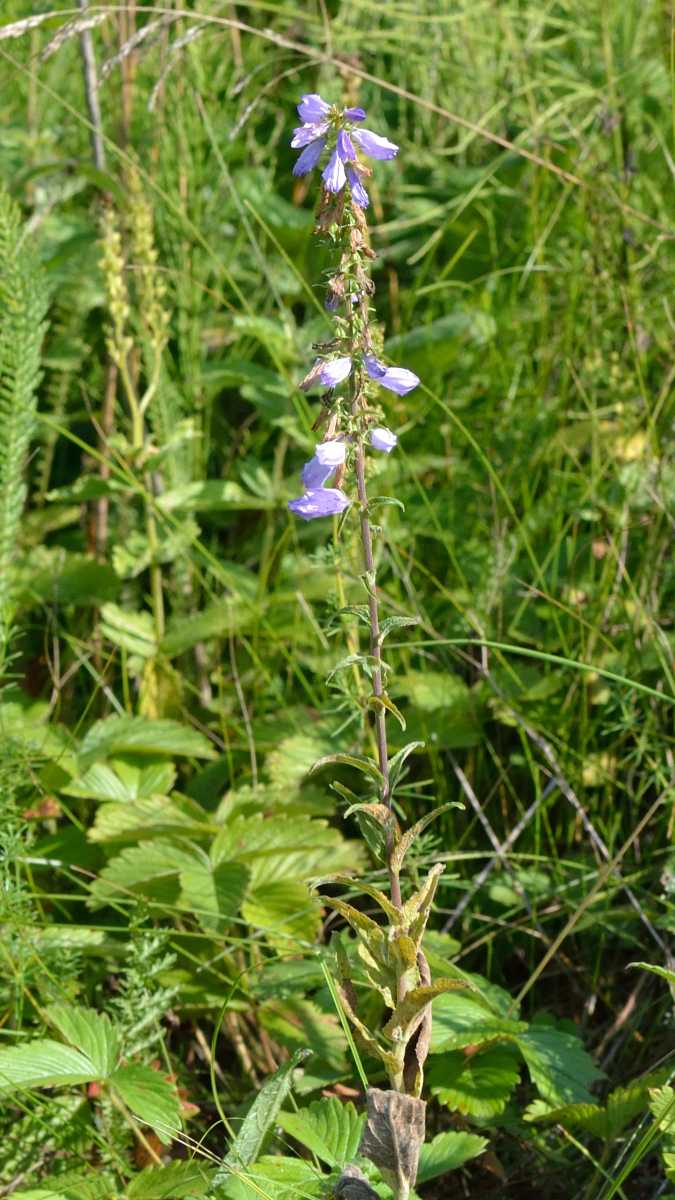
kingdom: Plantae
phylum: Tracheophyta
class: Magnoliopsida
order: Asterales
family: Campanulaceae
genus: Campanula
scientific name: Campanula bononiensis
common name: Pale bellflower
